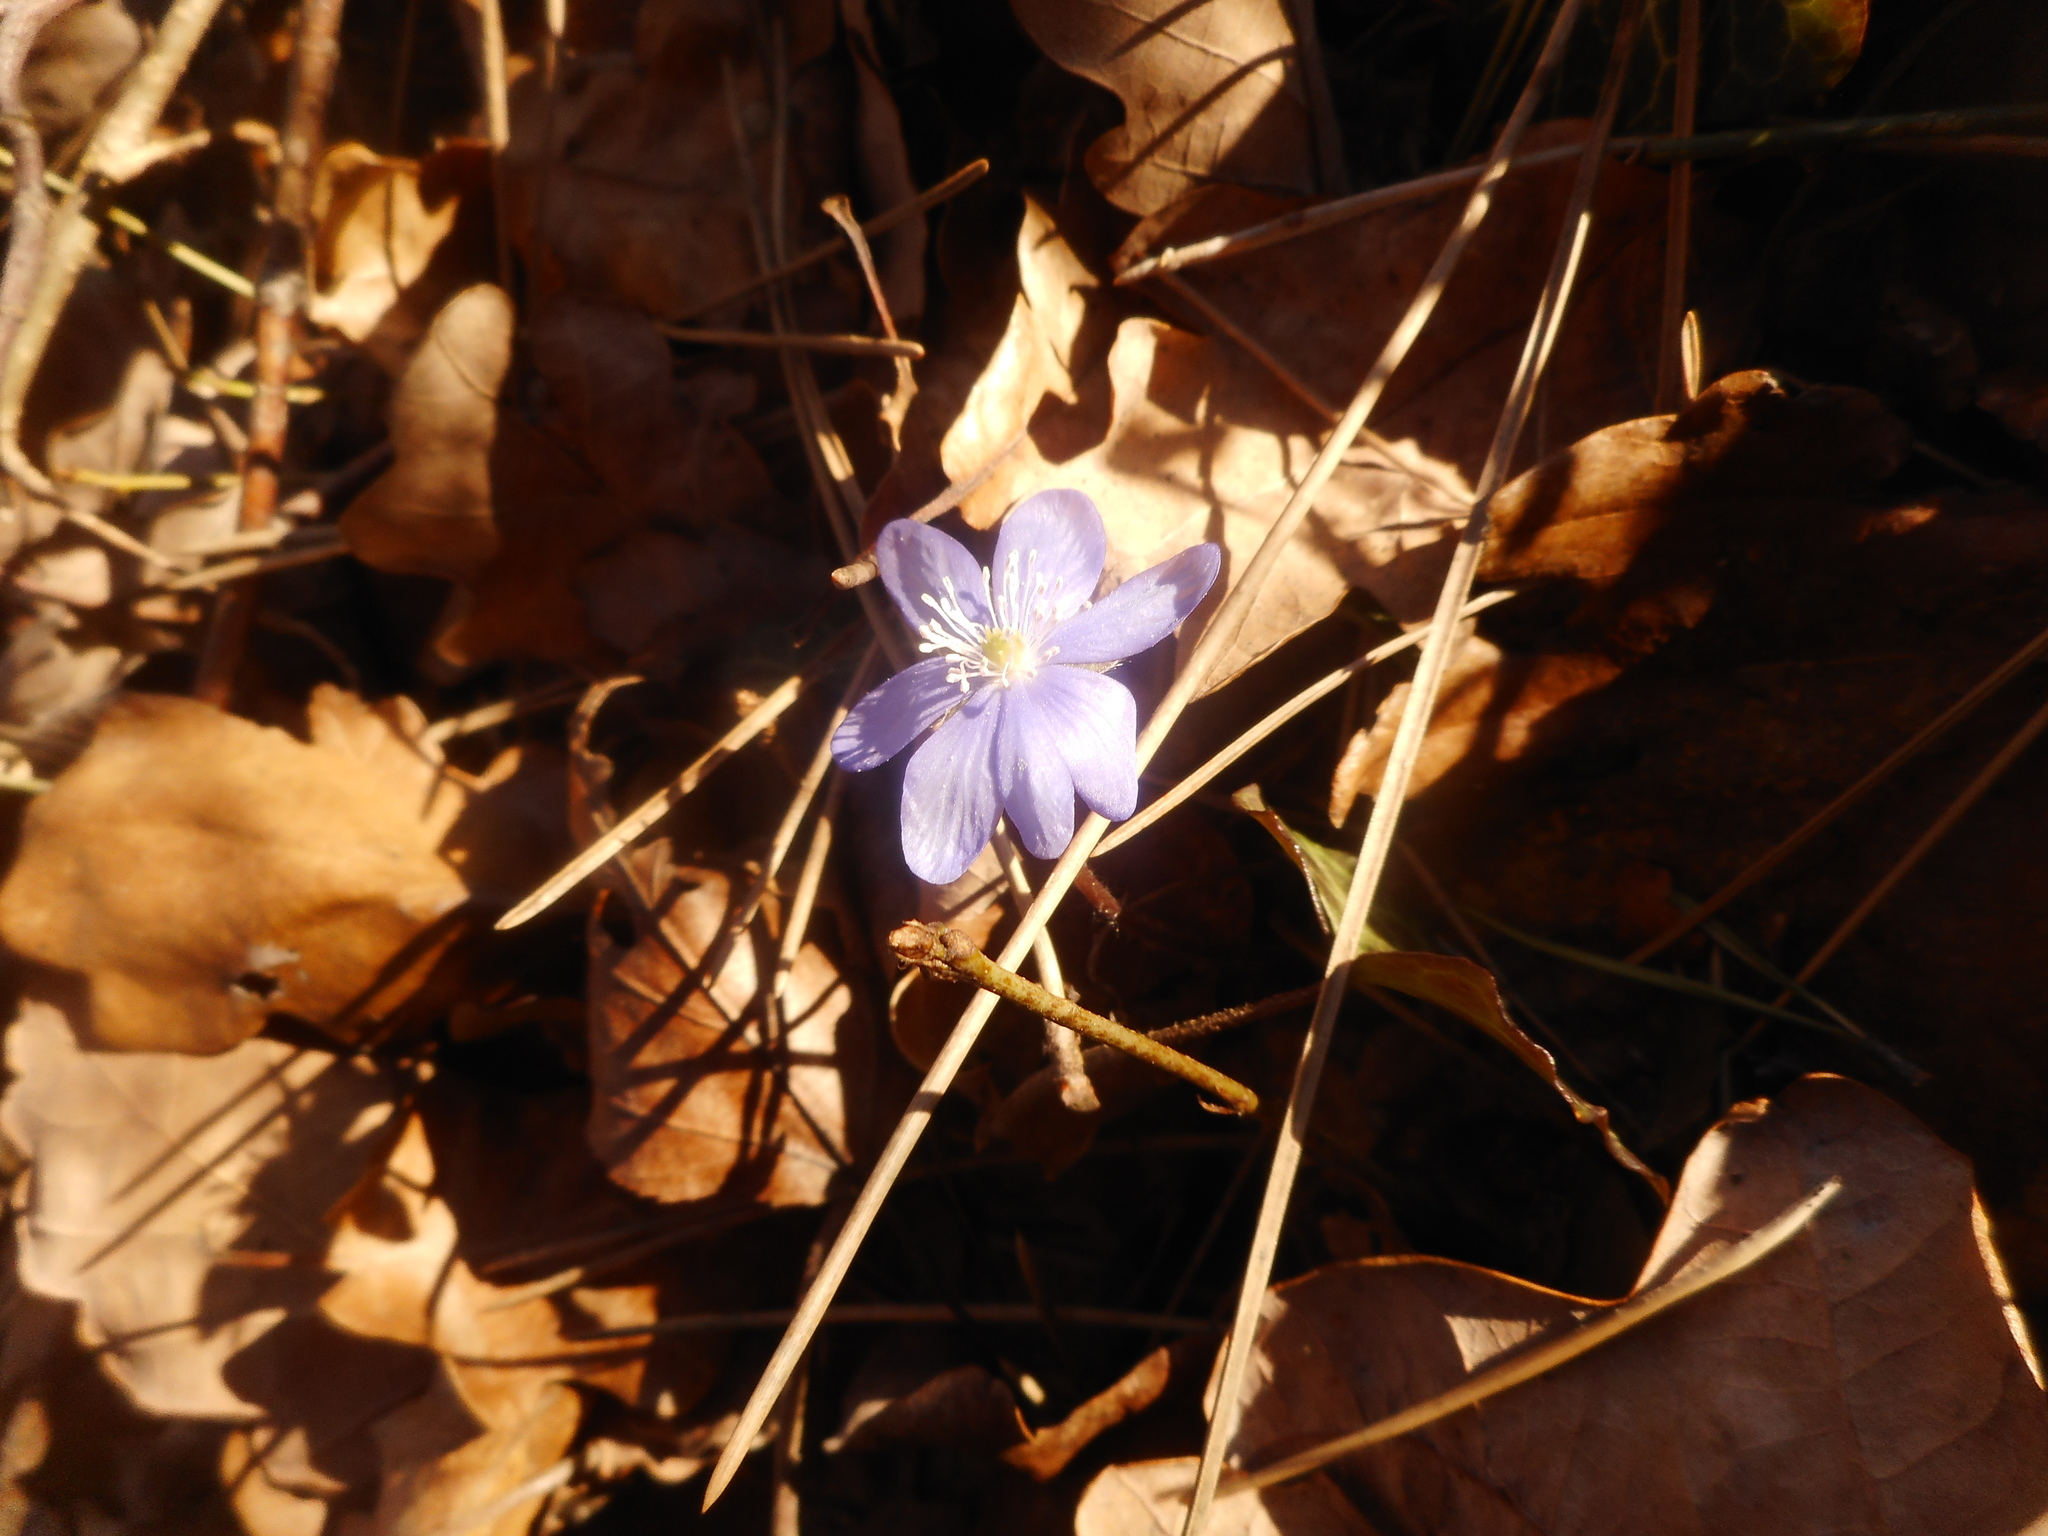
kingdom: Plantae
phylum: Tracheophyta
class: Magnoliopsida
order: Ranunculales
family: Ranunculaceae
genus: Hepatica
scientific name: Hepatica nobilis
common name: Liverleaf
